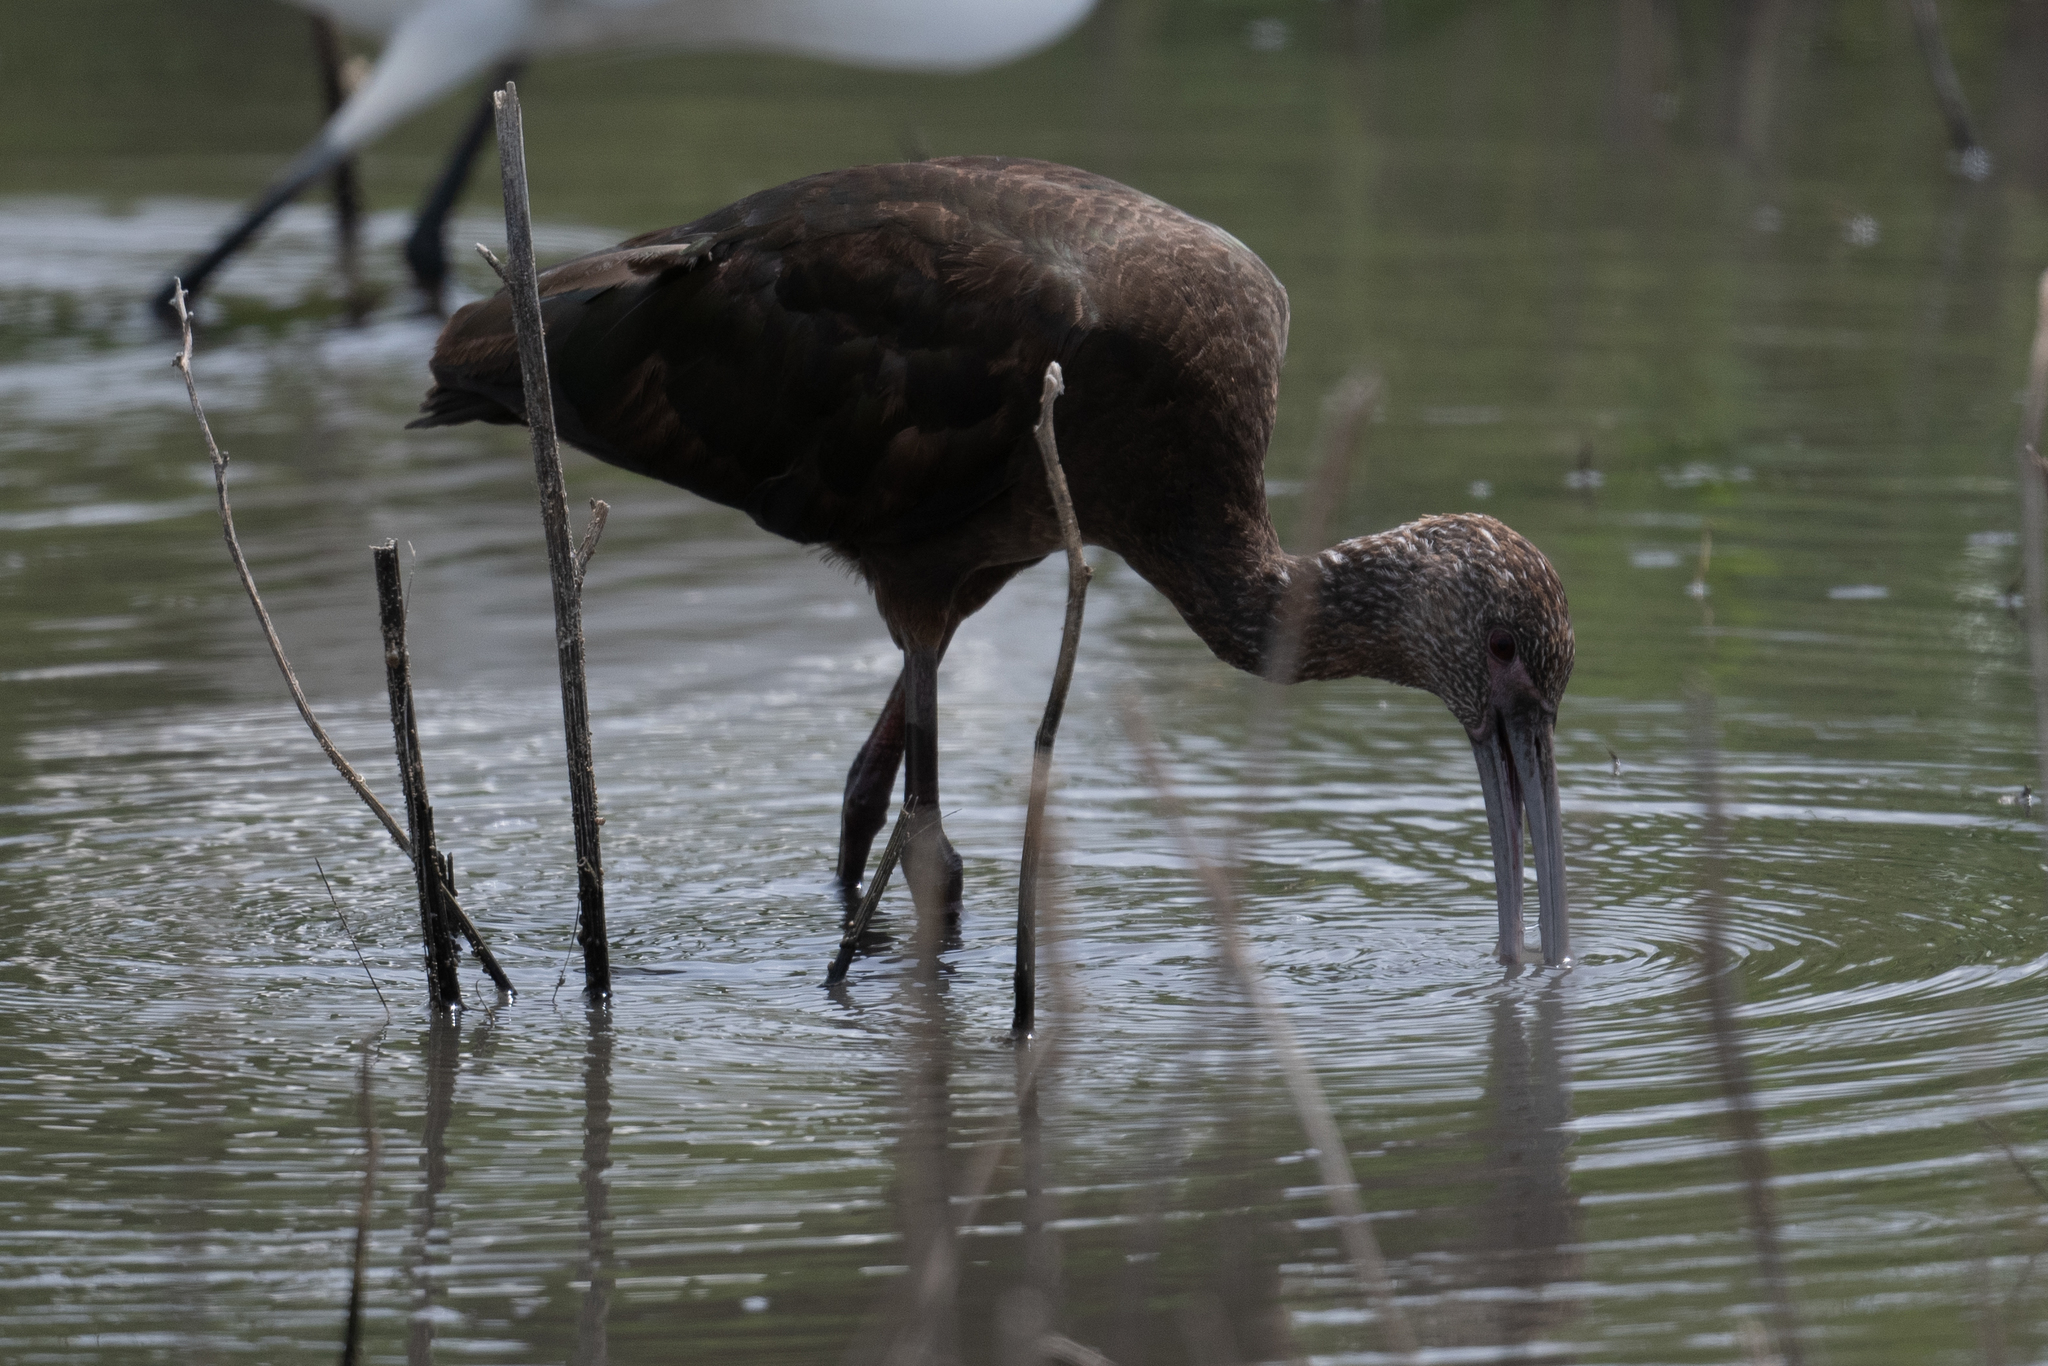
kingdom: Animalia
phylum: Chordata
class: Aves
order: Pelecaniformes
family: Threskiornithidae
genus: Plegadis
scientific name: Plegadis chihi
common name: White-faced ibis
